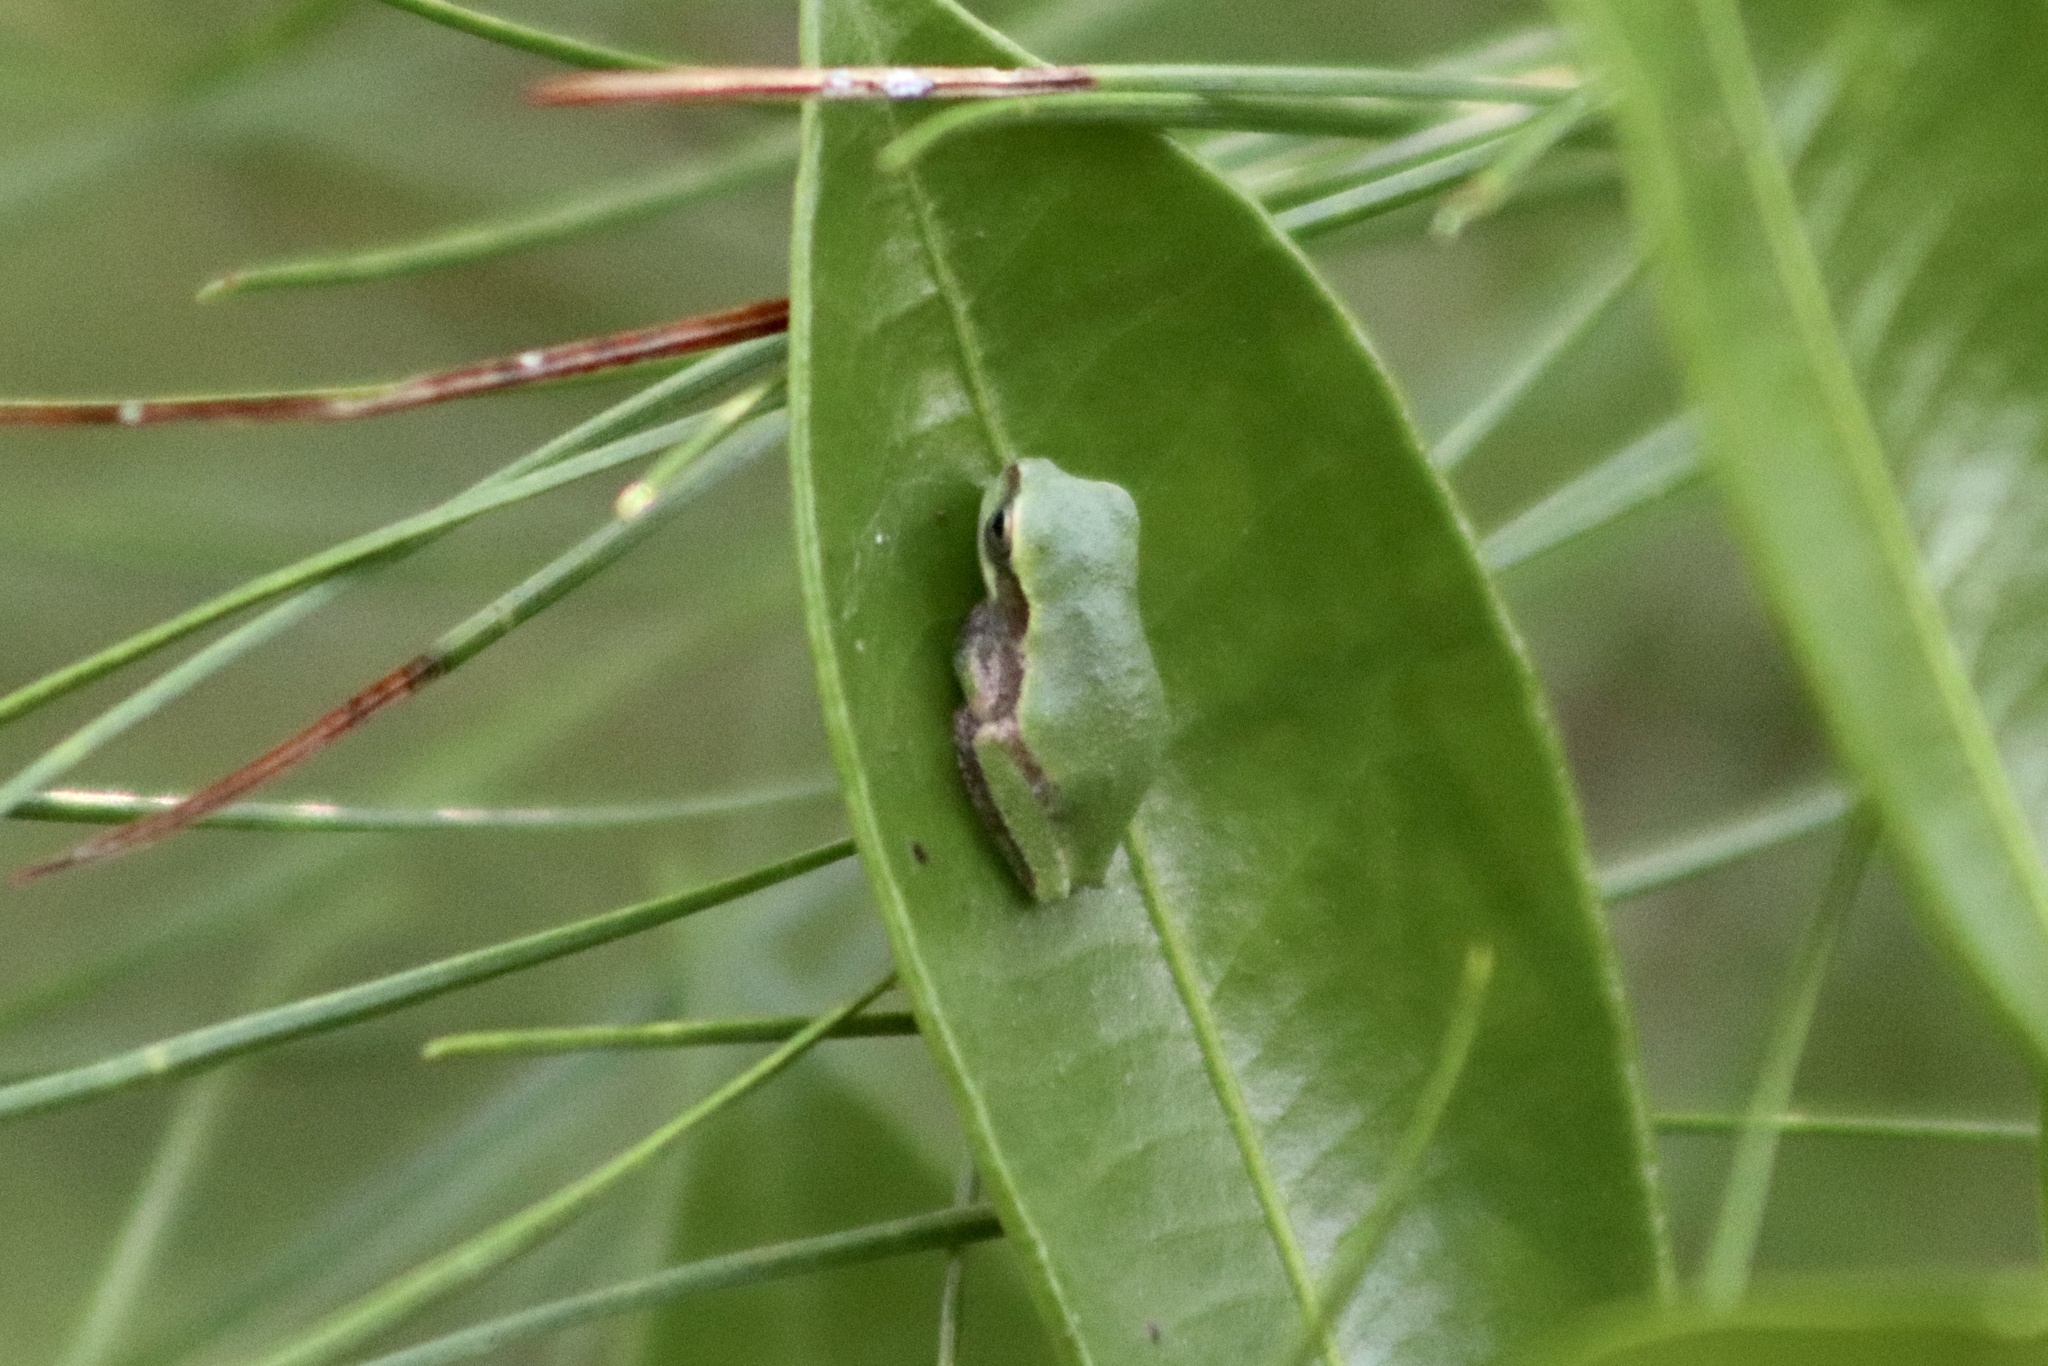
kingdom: Animalia
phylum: Chordata
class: Amphibia
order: Anura
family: Hylidae
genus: Hyla
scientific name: Hyla femoralis
